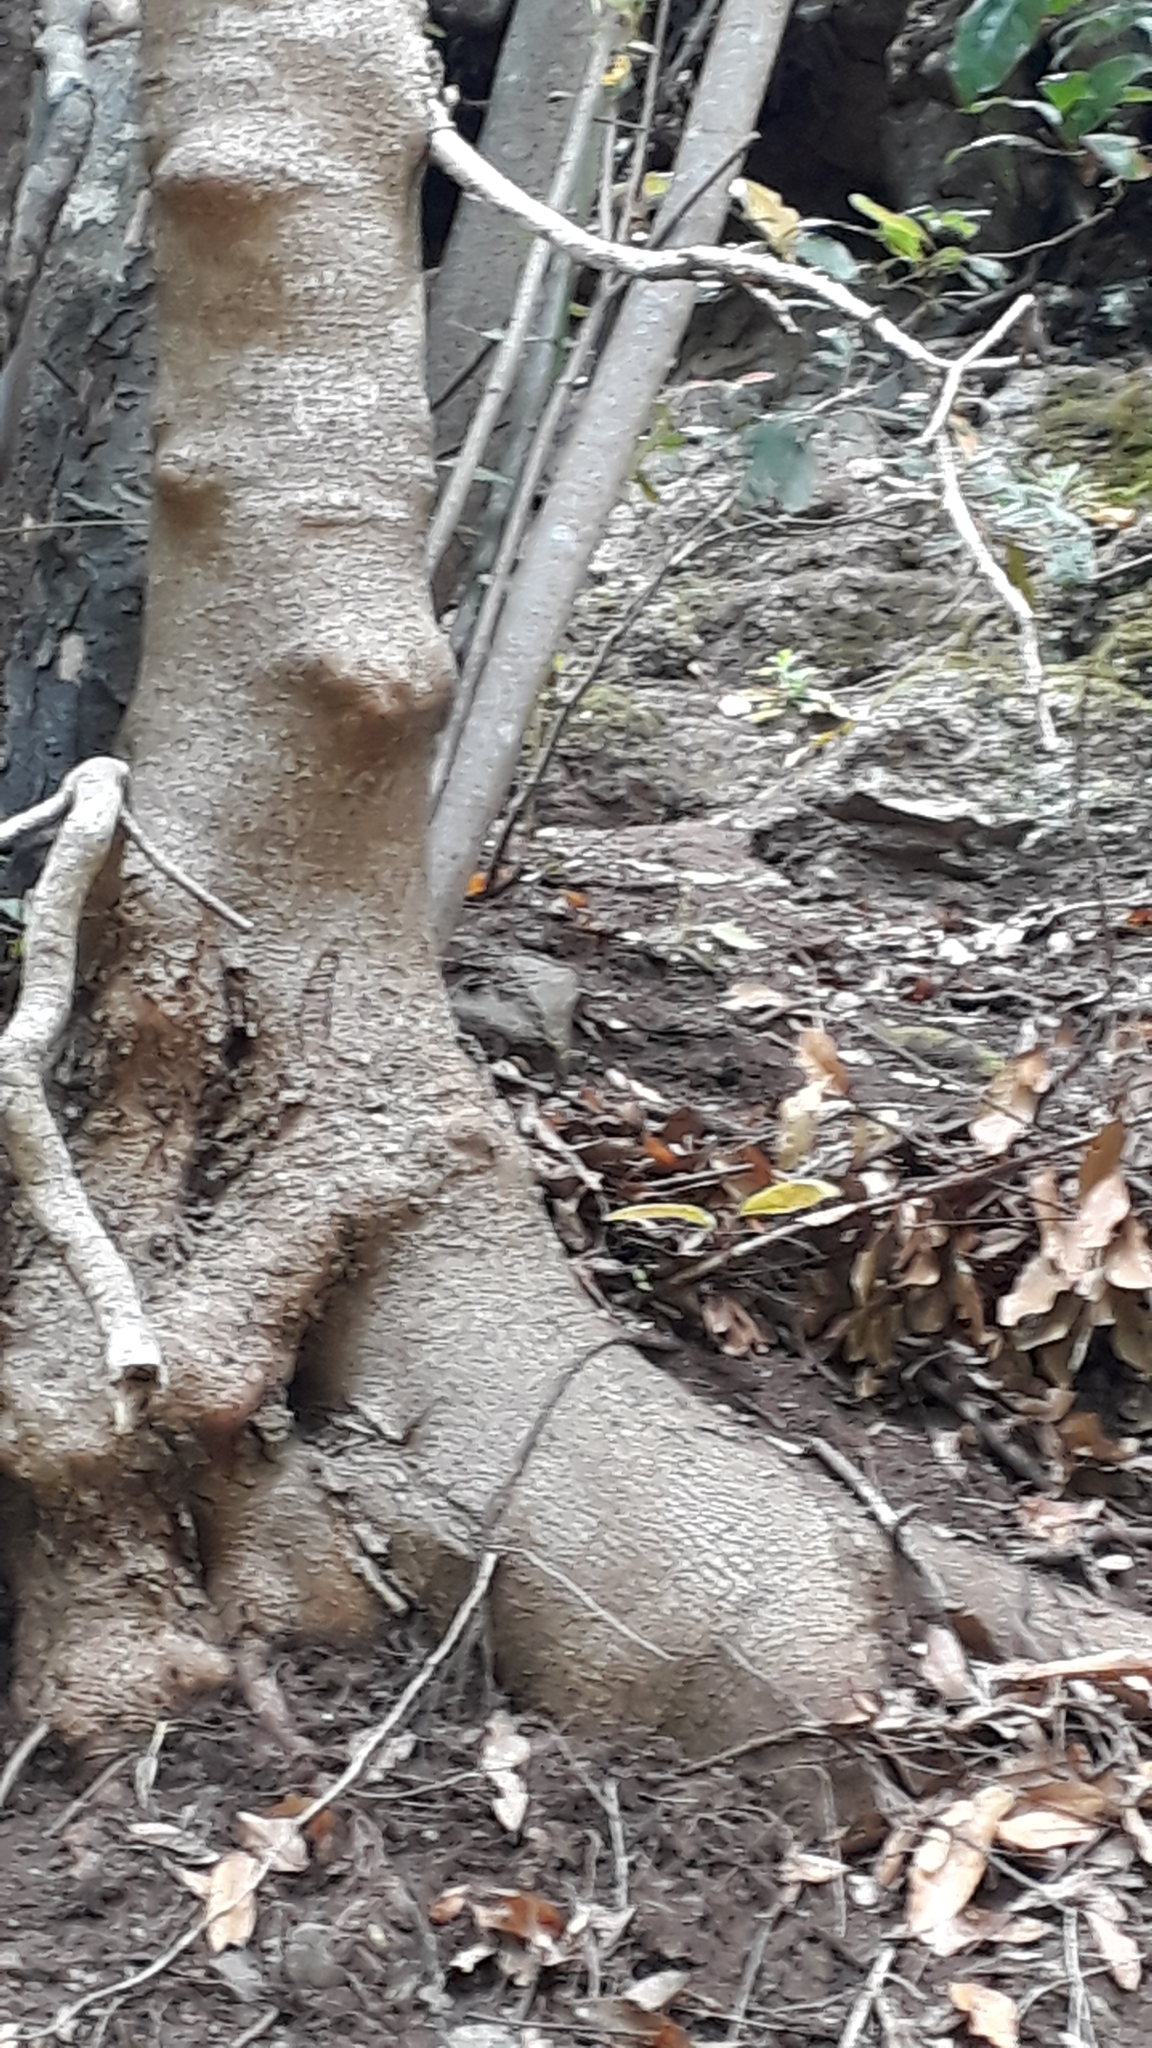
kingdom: Plantae
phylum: Tracheophyta
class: Magnoliopsida
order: Laurales
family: Lauraceae
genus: Apollonias
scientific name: Apollonias barbujana
